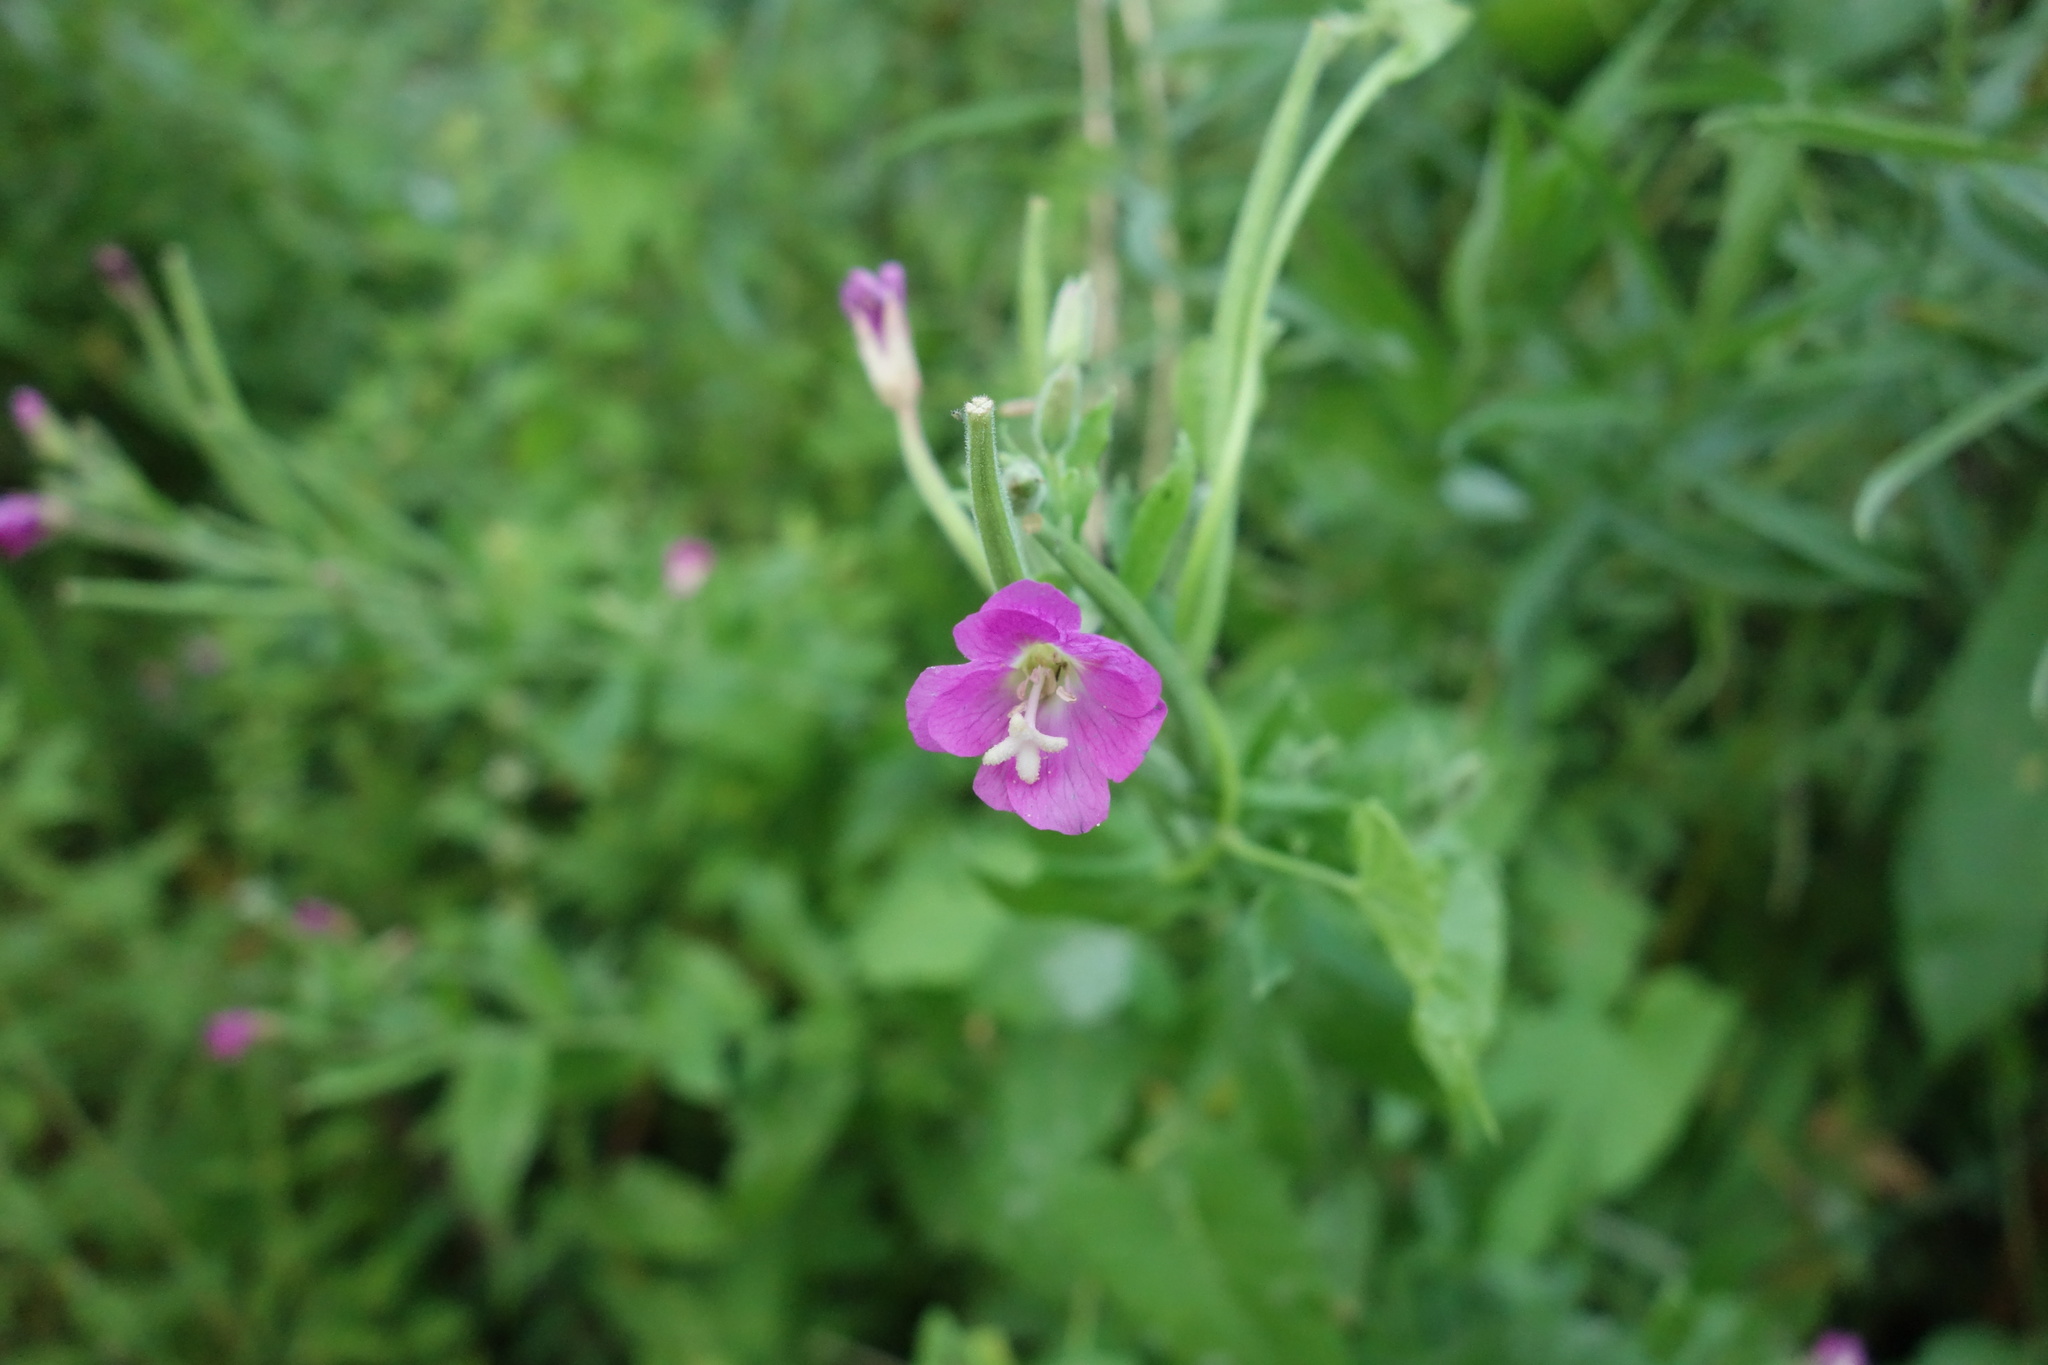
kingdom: Plantae
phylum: Tracheophyta
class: Magnoliopsida
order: Myrtales
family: Onagraceae
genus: Epilobium
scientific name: Epilobium hirsutum
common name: Great willowherb
